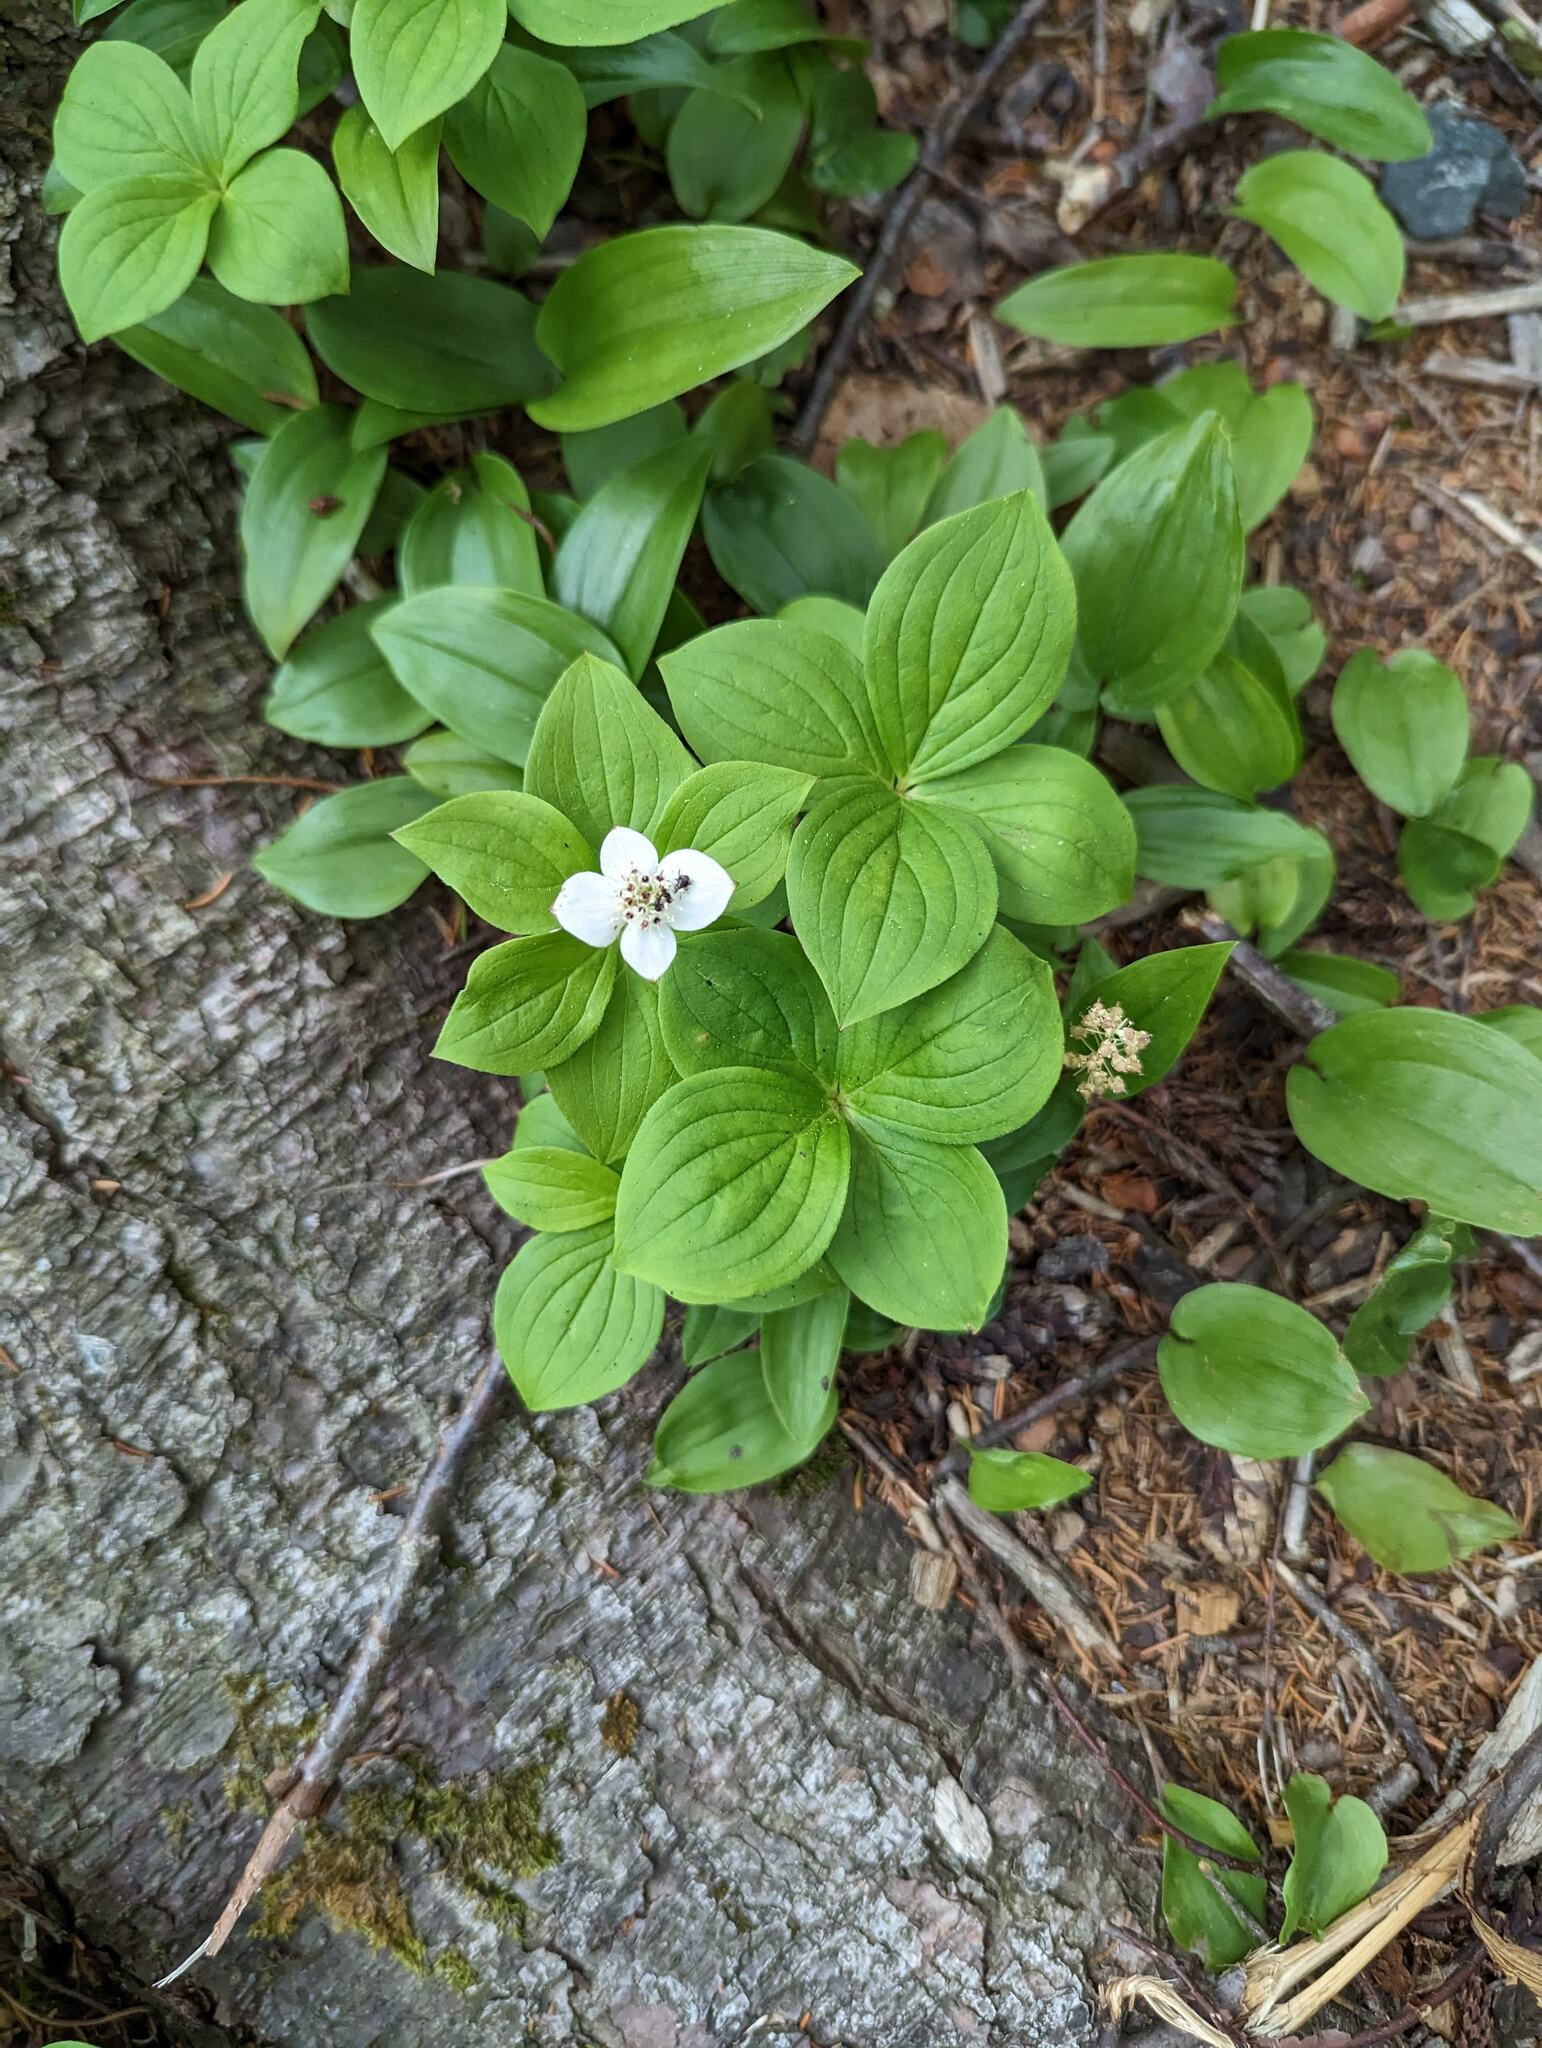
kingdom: Plantae
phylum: Tracheophyta
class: Magnoliopsida
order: Cornales
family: Cornaceae
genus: Cornus
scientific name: Cornus canadensis
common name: Creeping dogwood
